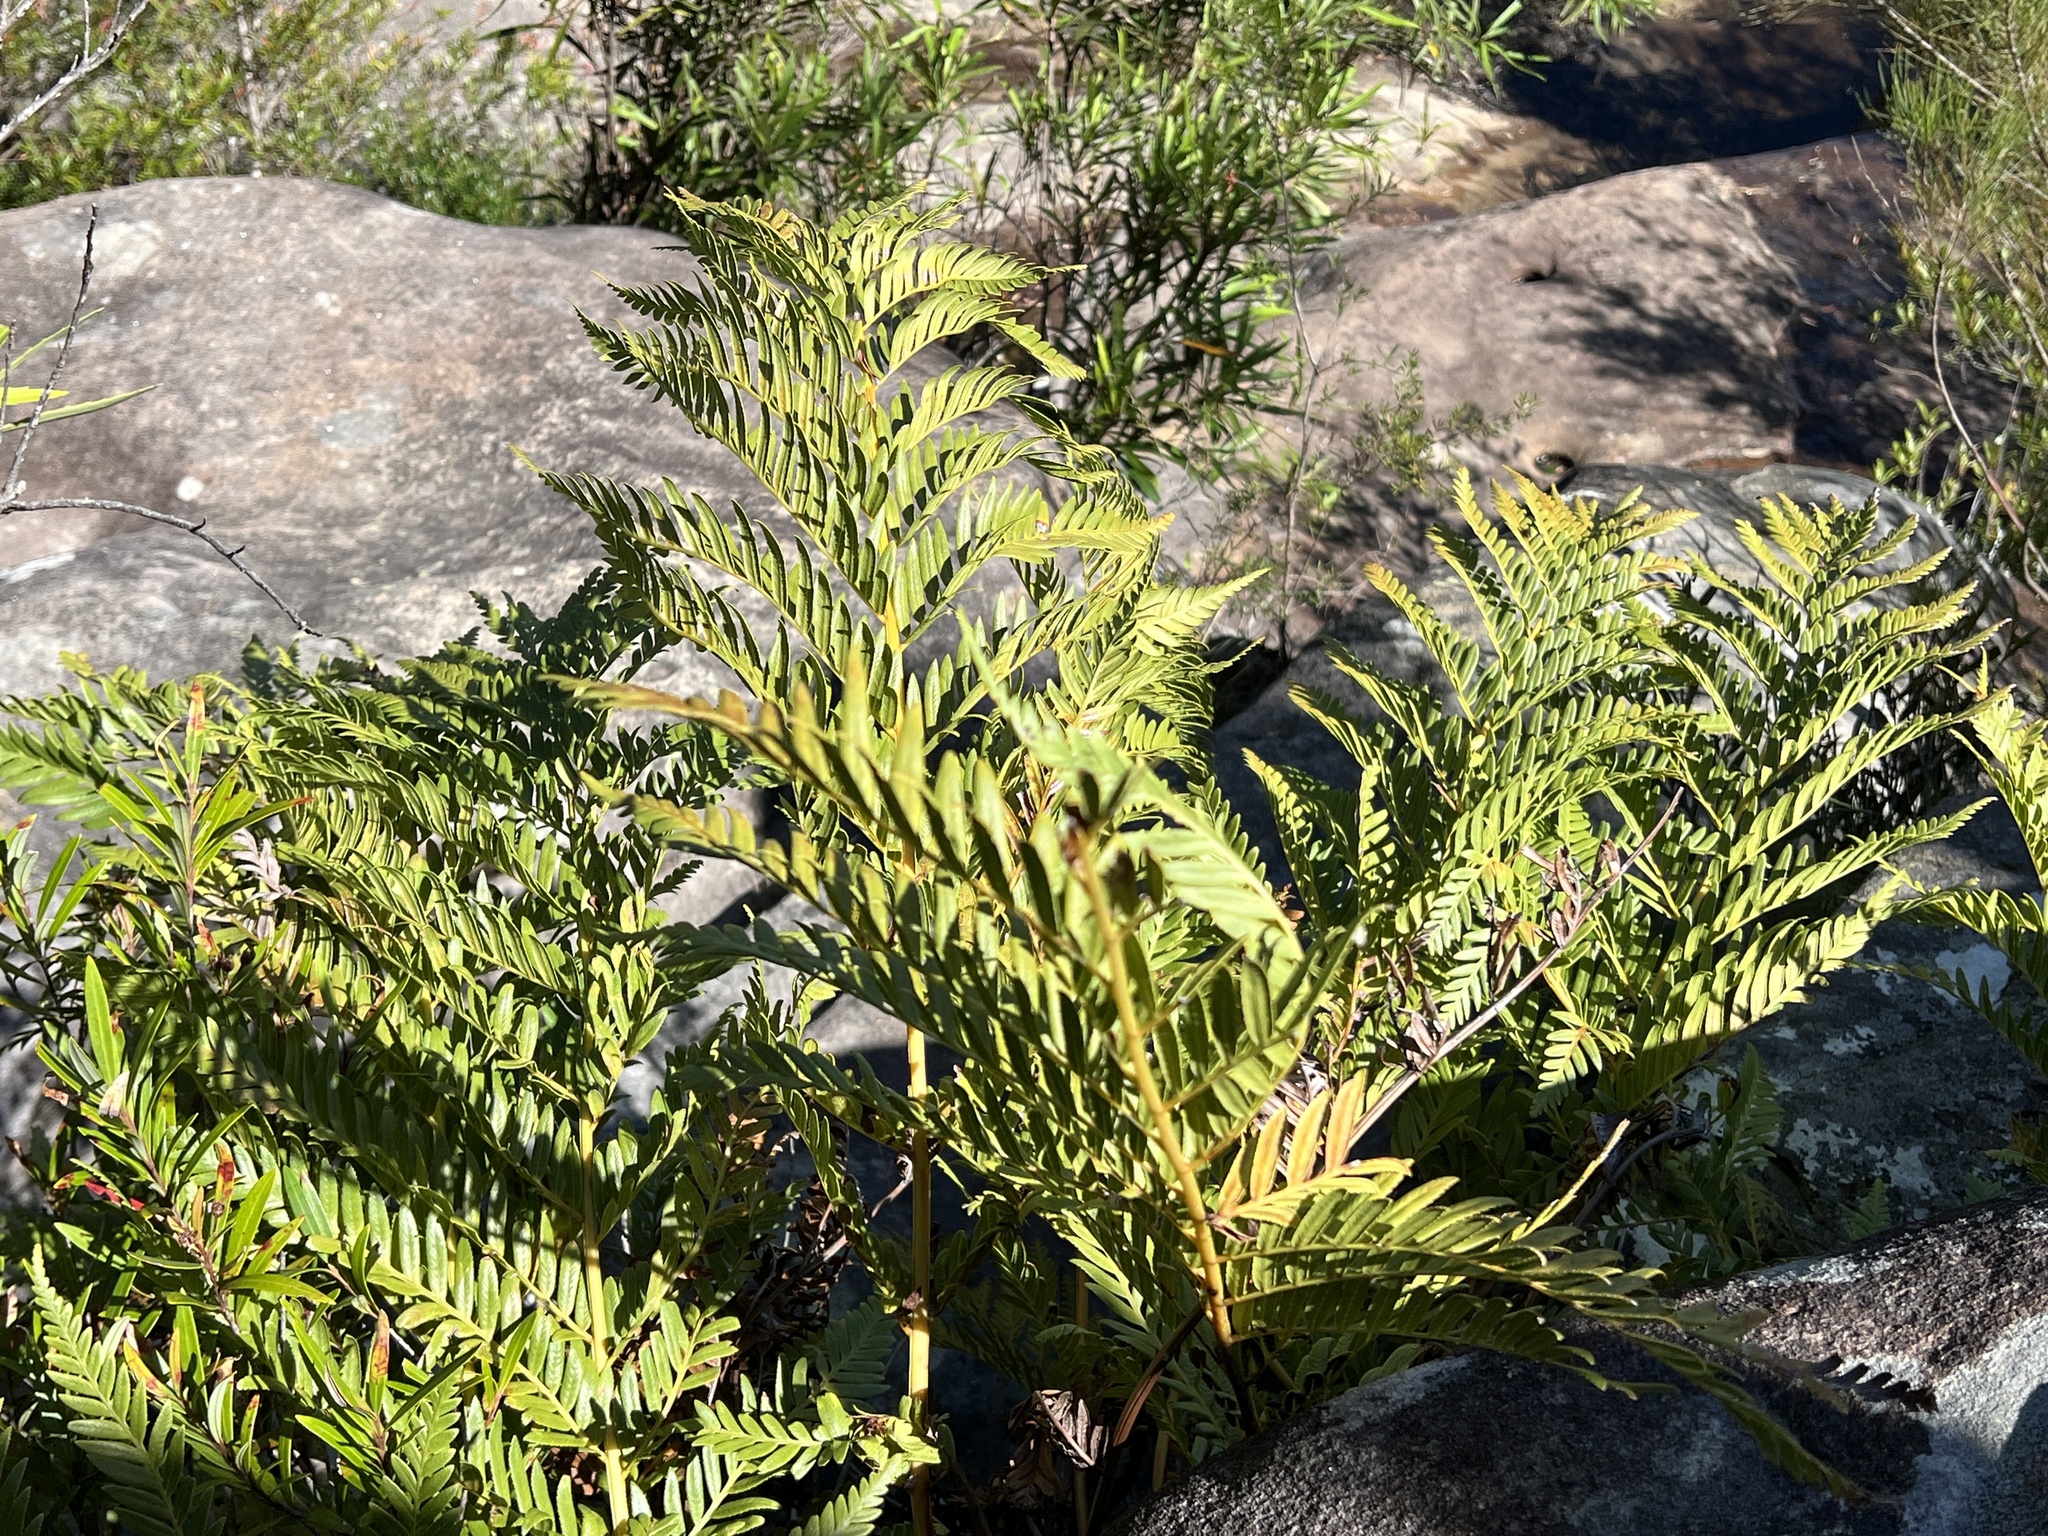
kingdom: Plantae
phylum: Tracheophyta
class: Polypodiopsida
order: Osmundales
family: Osmundaceae
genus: Todea
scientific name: Todea barbara
